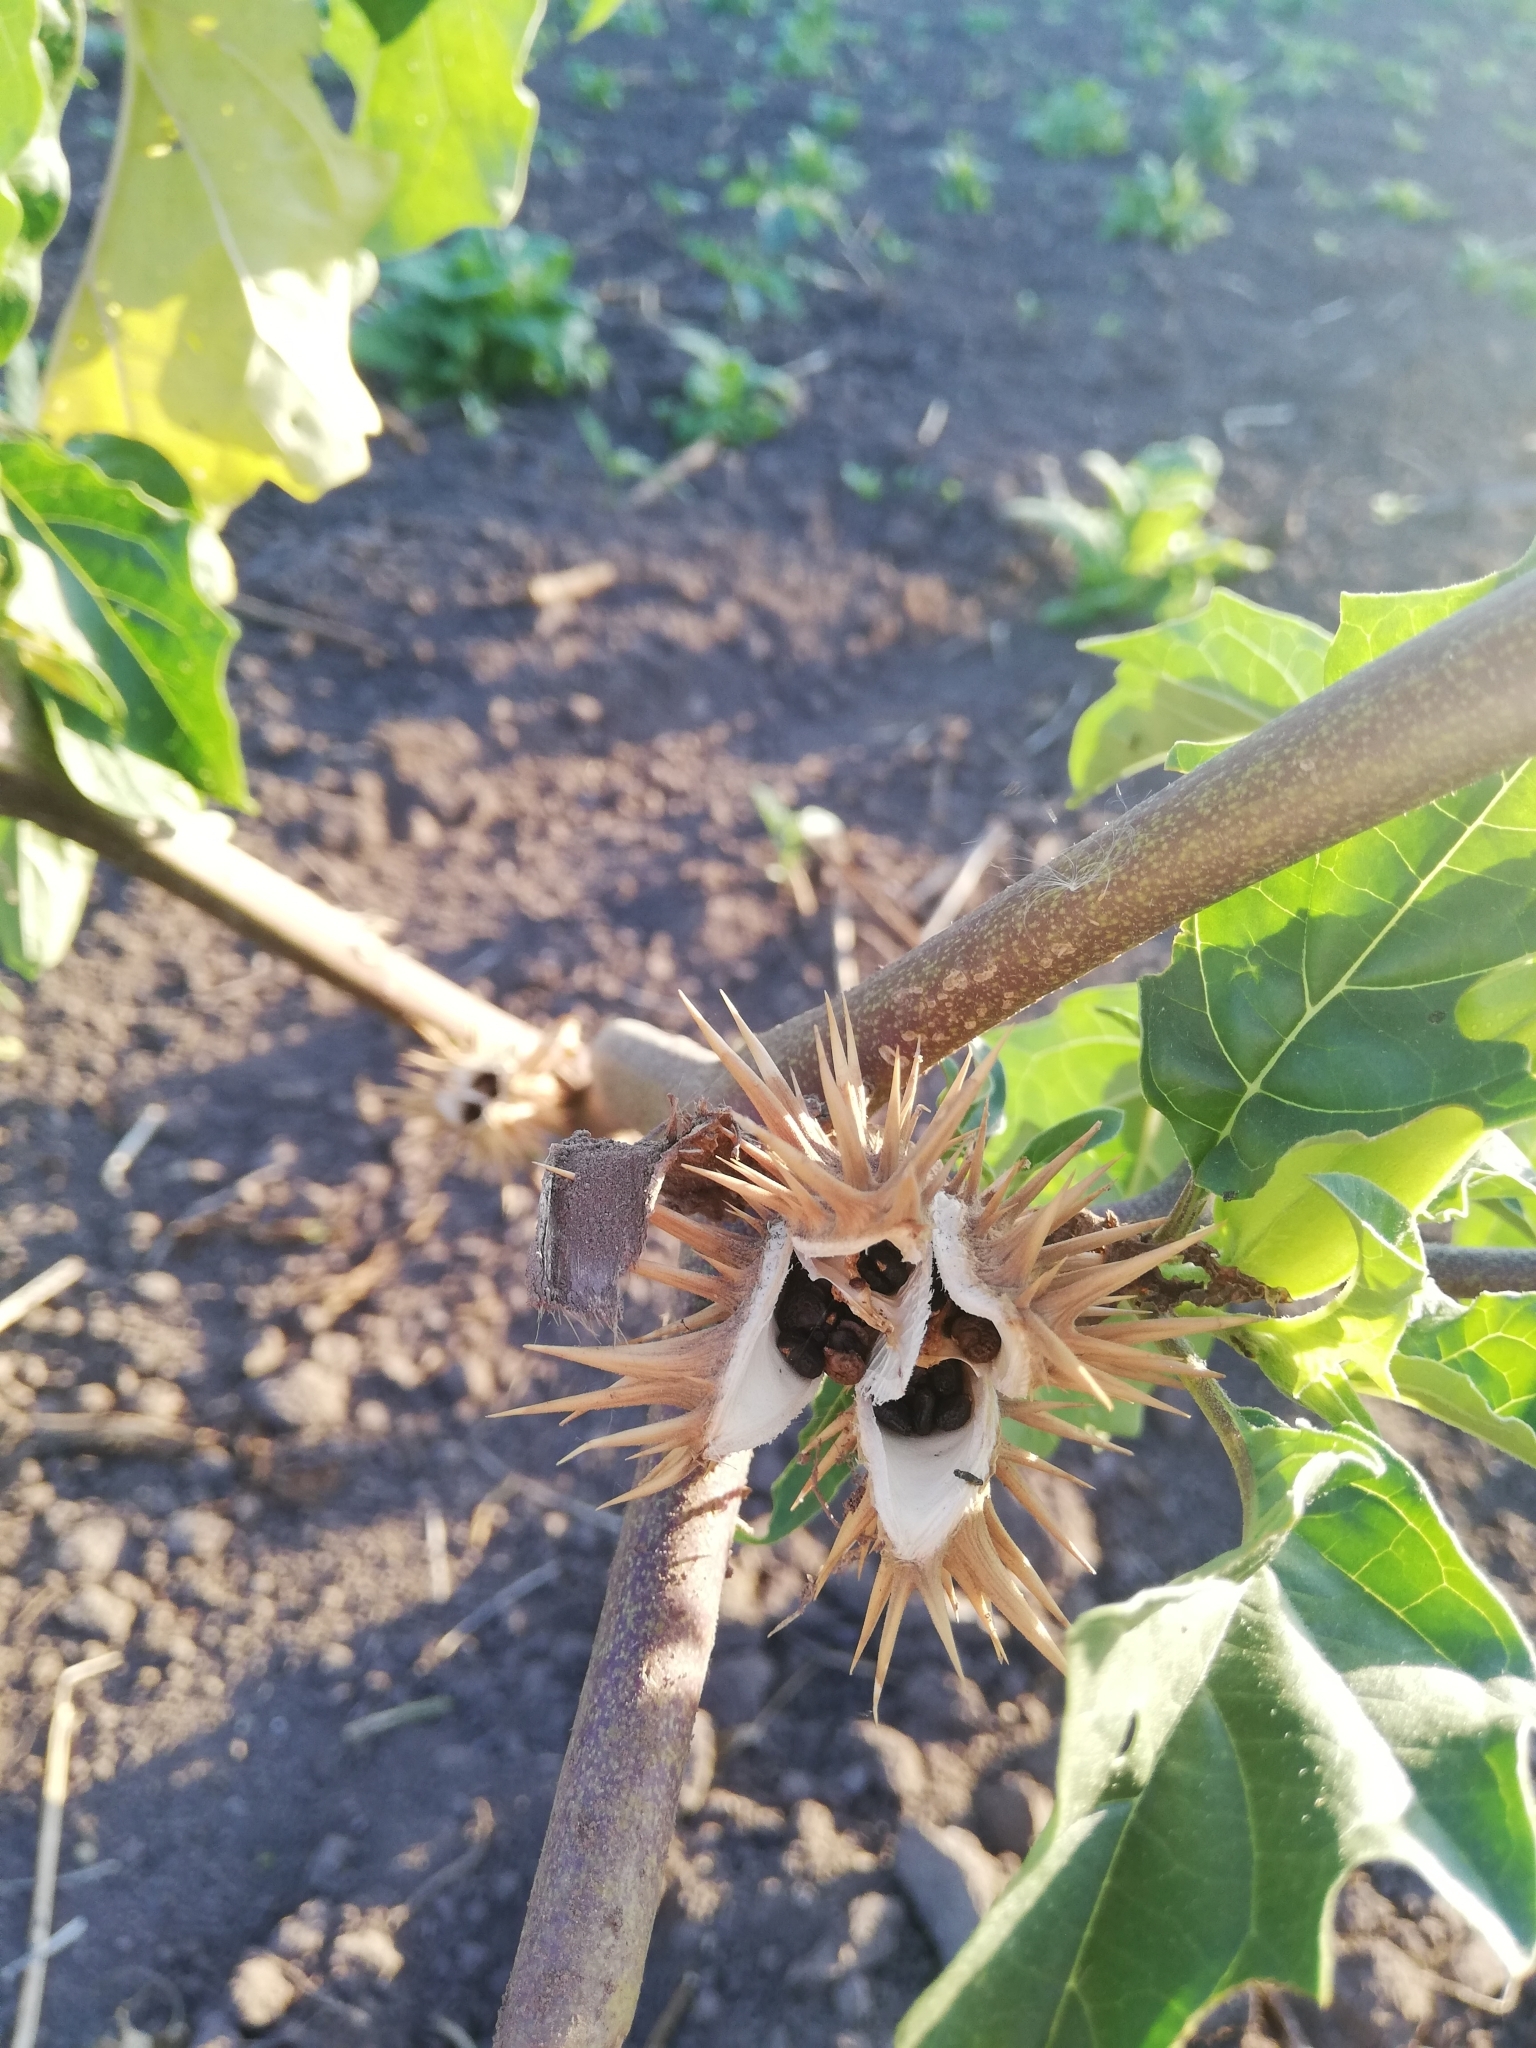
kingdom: Plantae
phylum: Tracheophyta
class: Magnoliopsida
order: Solanales
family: Solanaceae
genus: Datura
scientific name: Datura stramonium
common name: Thorn-apple
